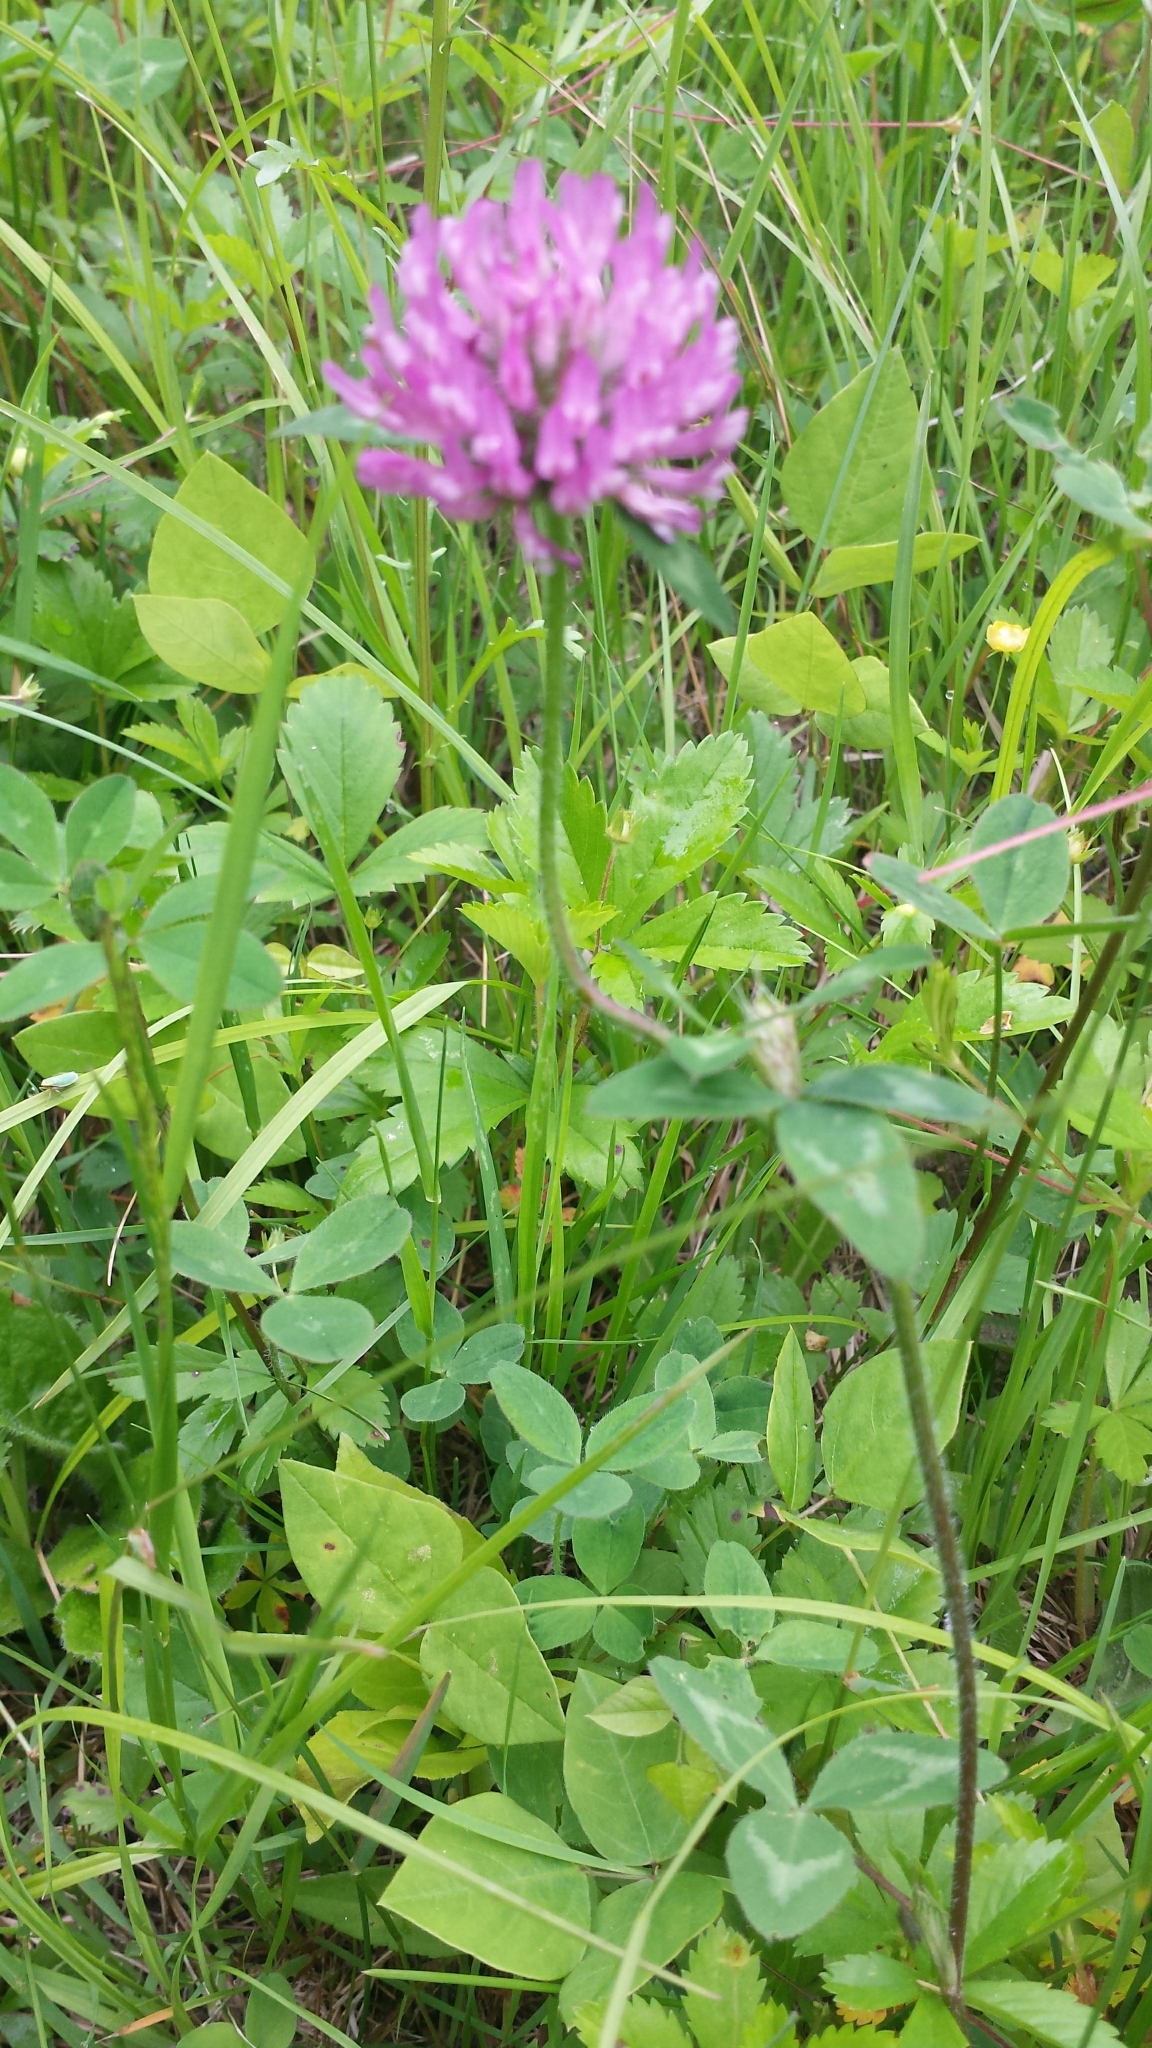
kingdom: Plantae
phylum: Tracheophyta
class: Magnoliopsida
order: Fabales
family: Fabaceae
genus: Trifolium
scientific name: Trifolium pratense
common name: Red clover
